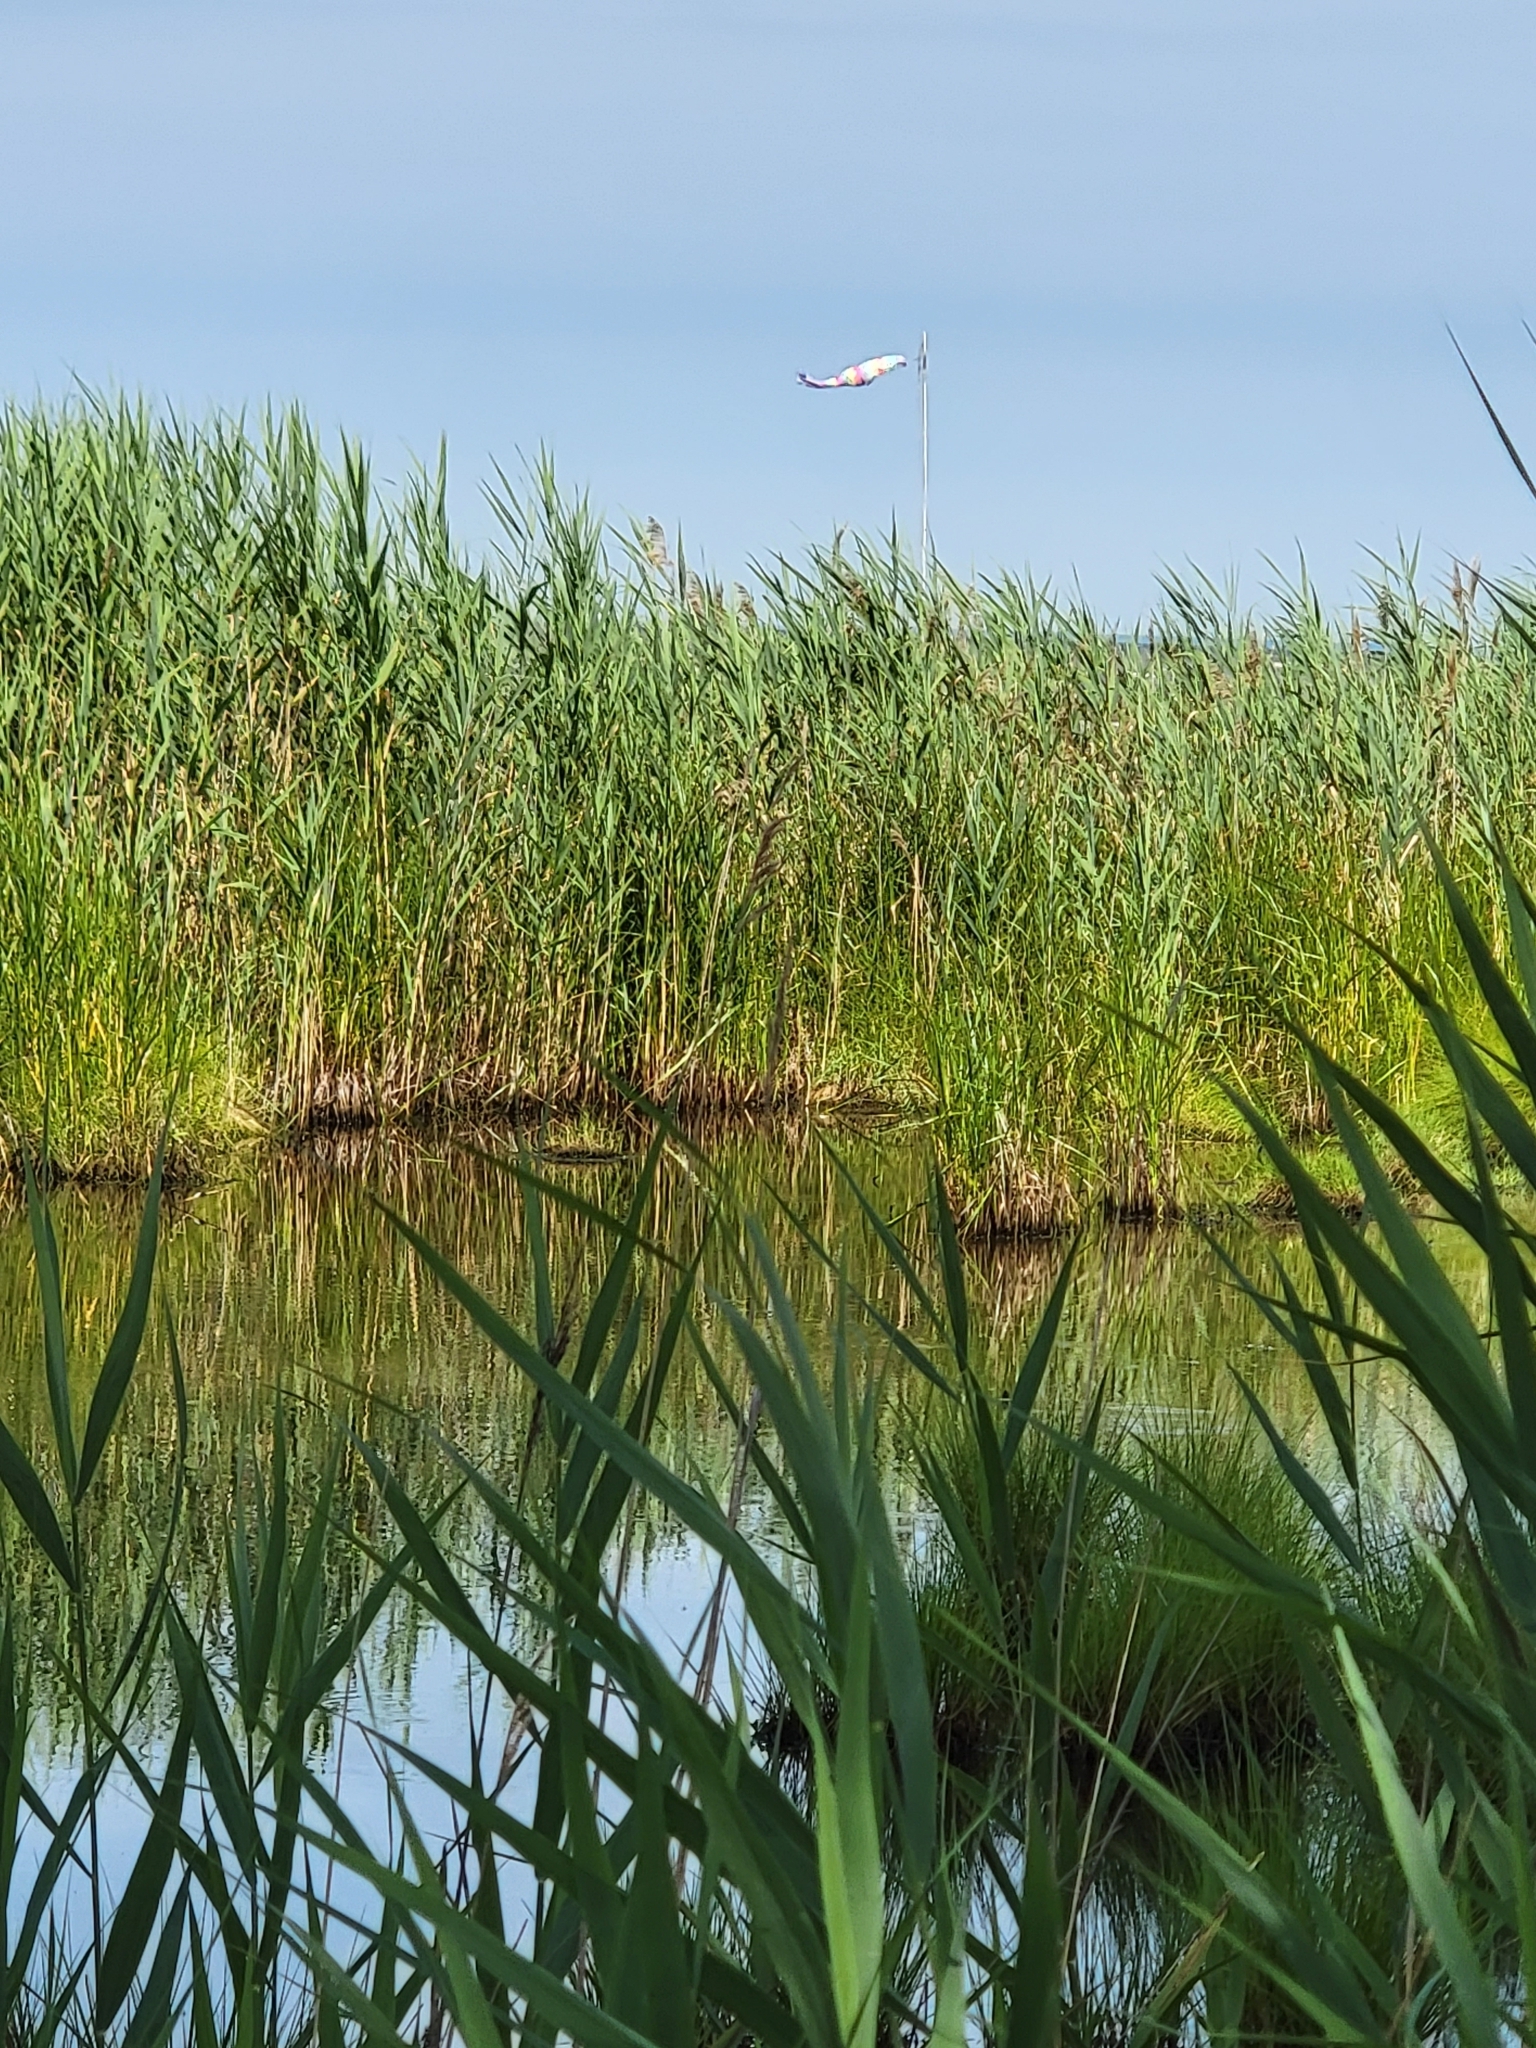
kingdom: Plantae
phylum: Tracheophyta
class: Liliopsida
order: Poales
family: Poaceae
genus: Phragmites
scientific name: Phragmites australis
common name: Common reed
